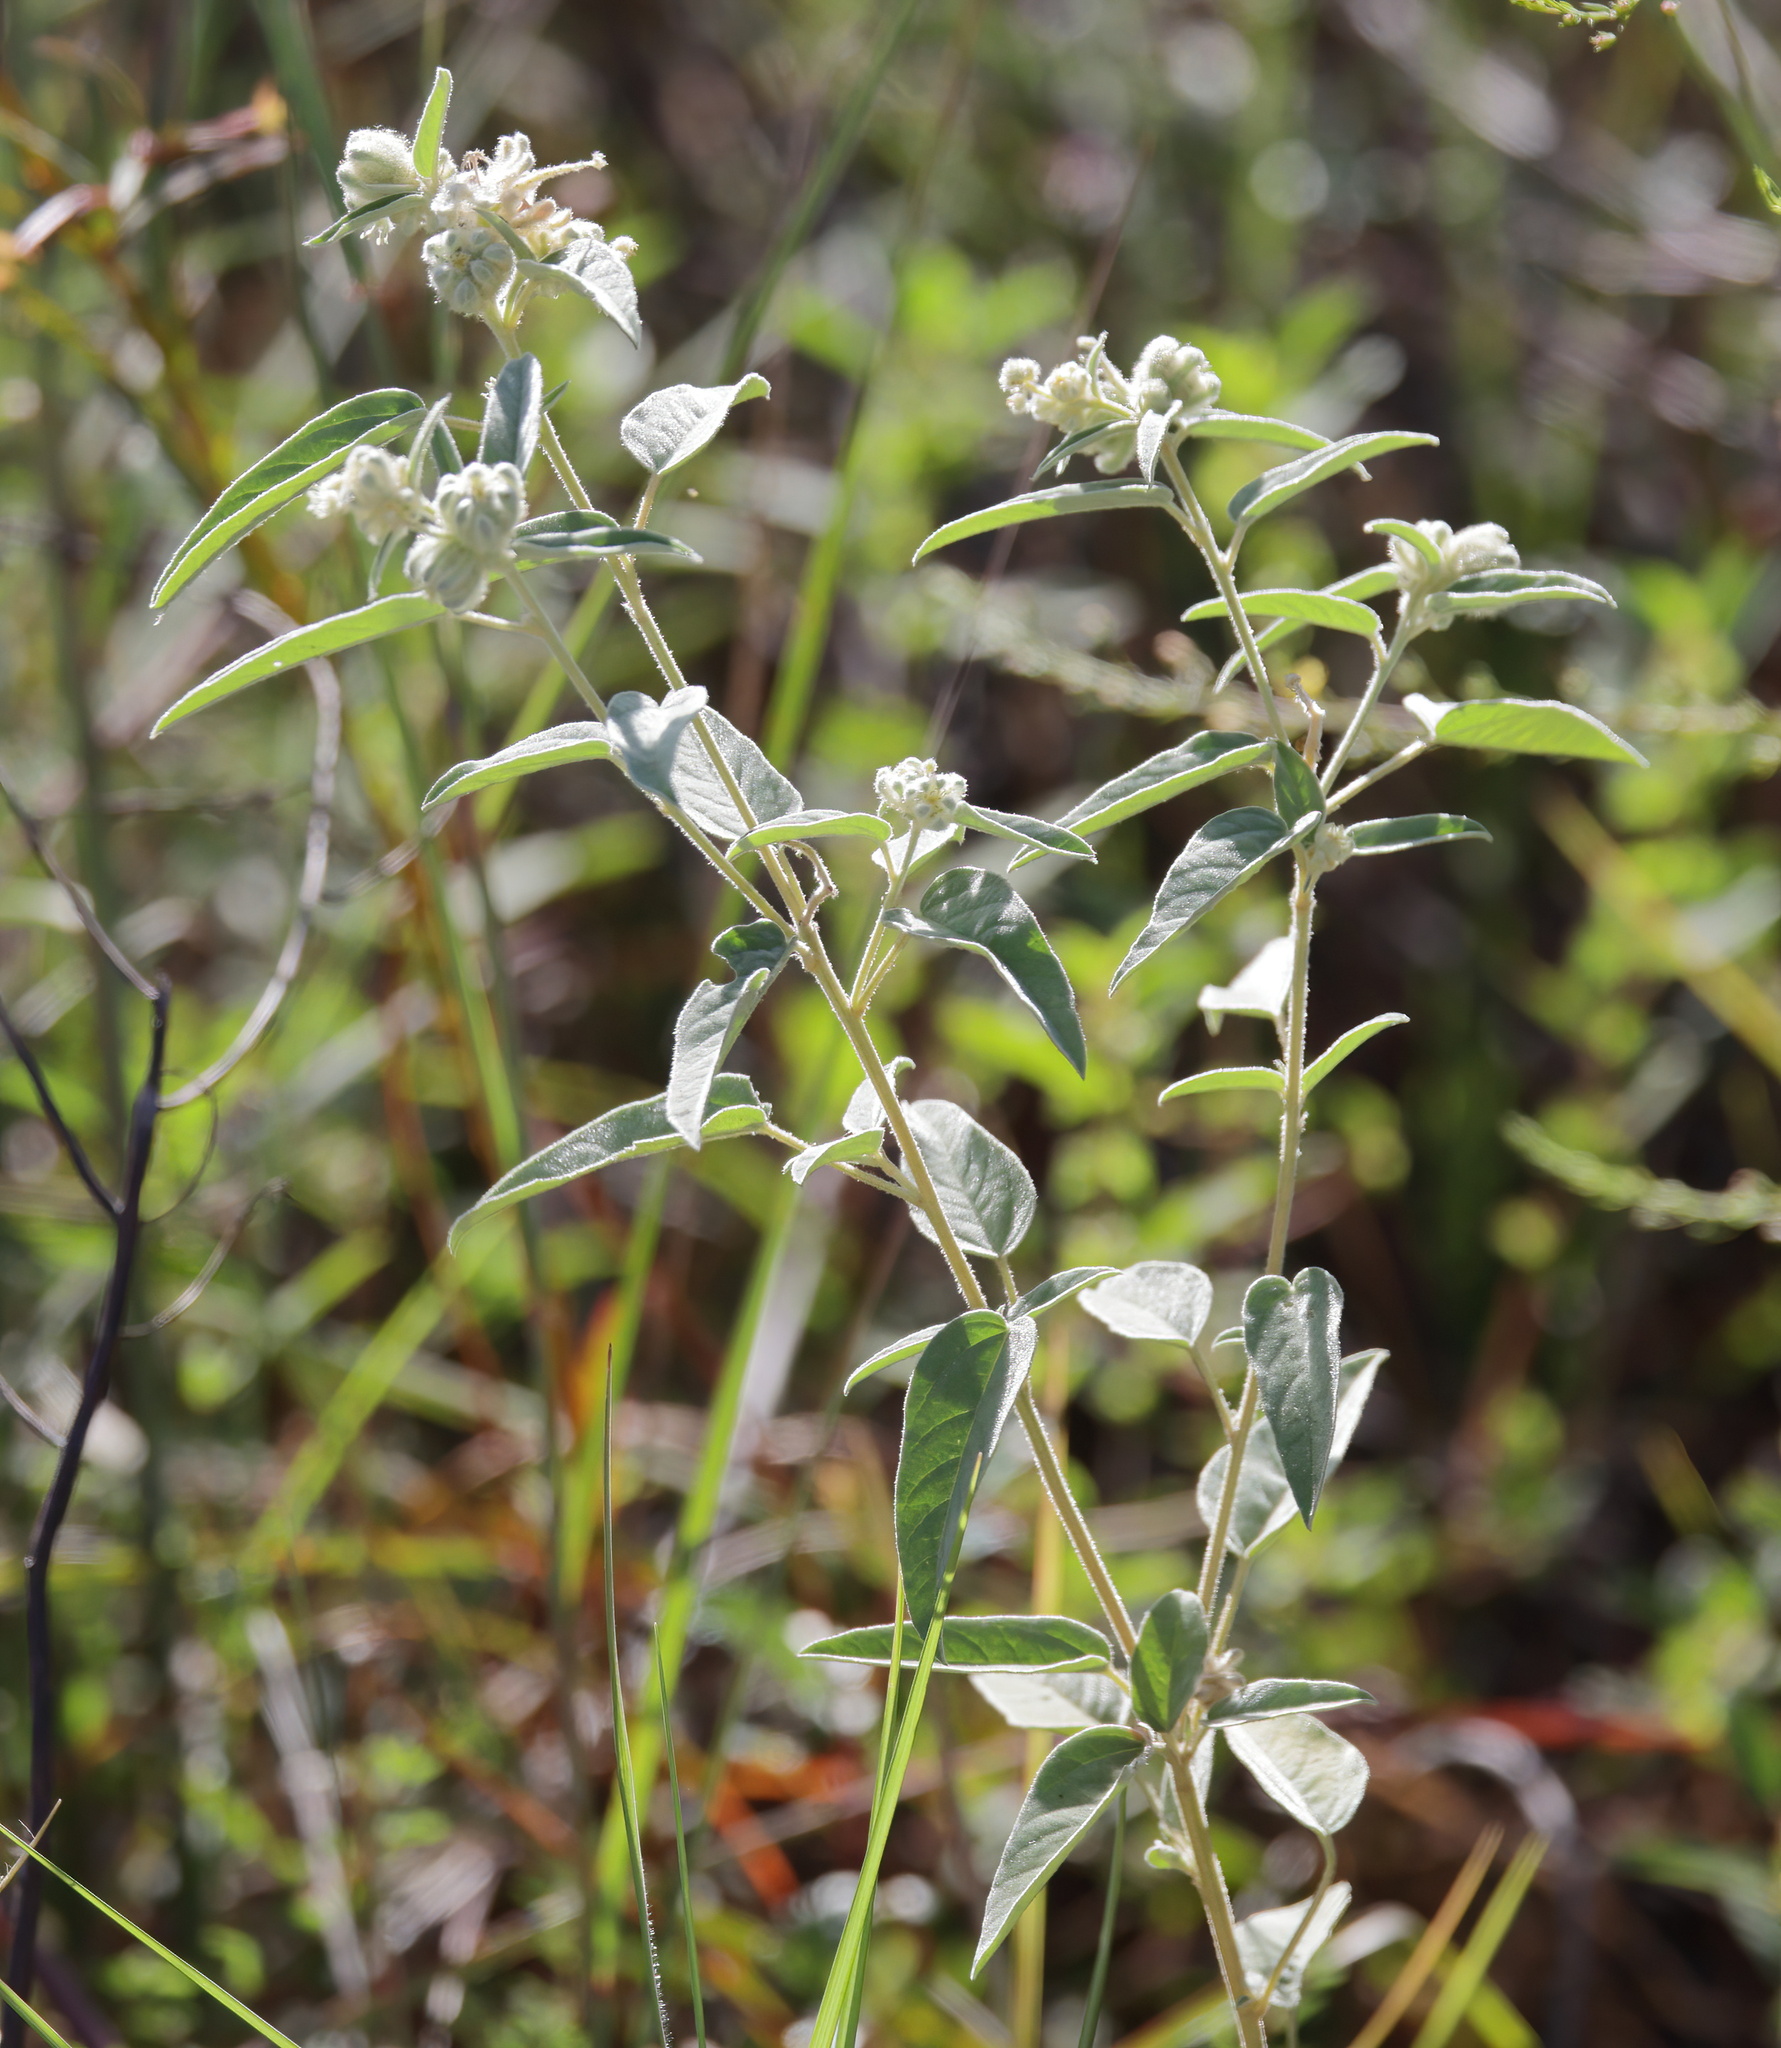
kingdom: Plantae
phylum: Tracheophyta
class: Magnoliopsida
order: Malpighiales
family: Euphorbiaceae
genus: Croton
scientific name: Croton lindheimeri
